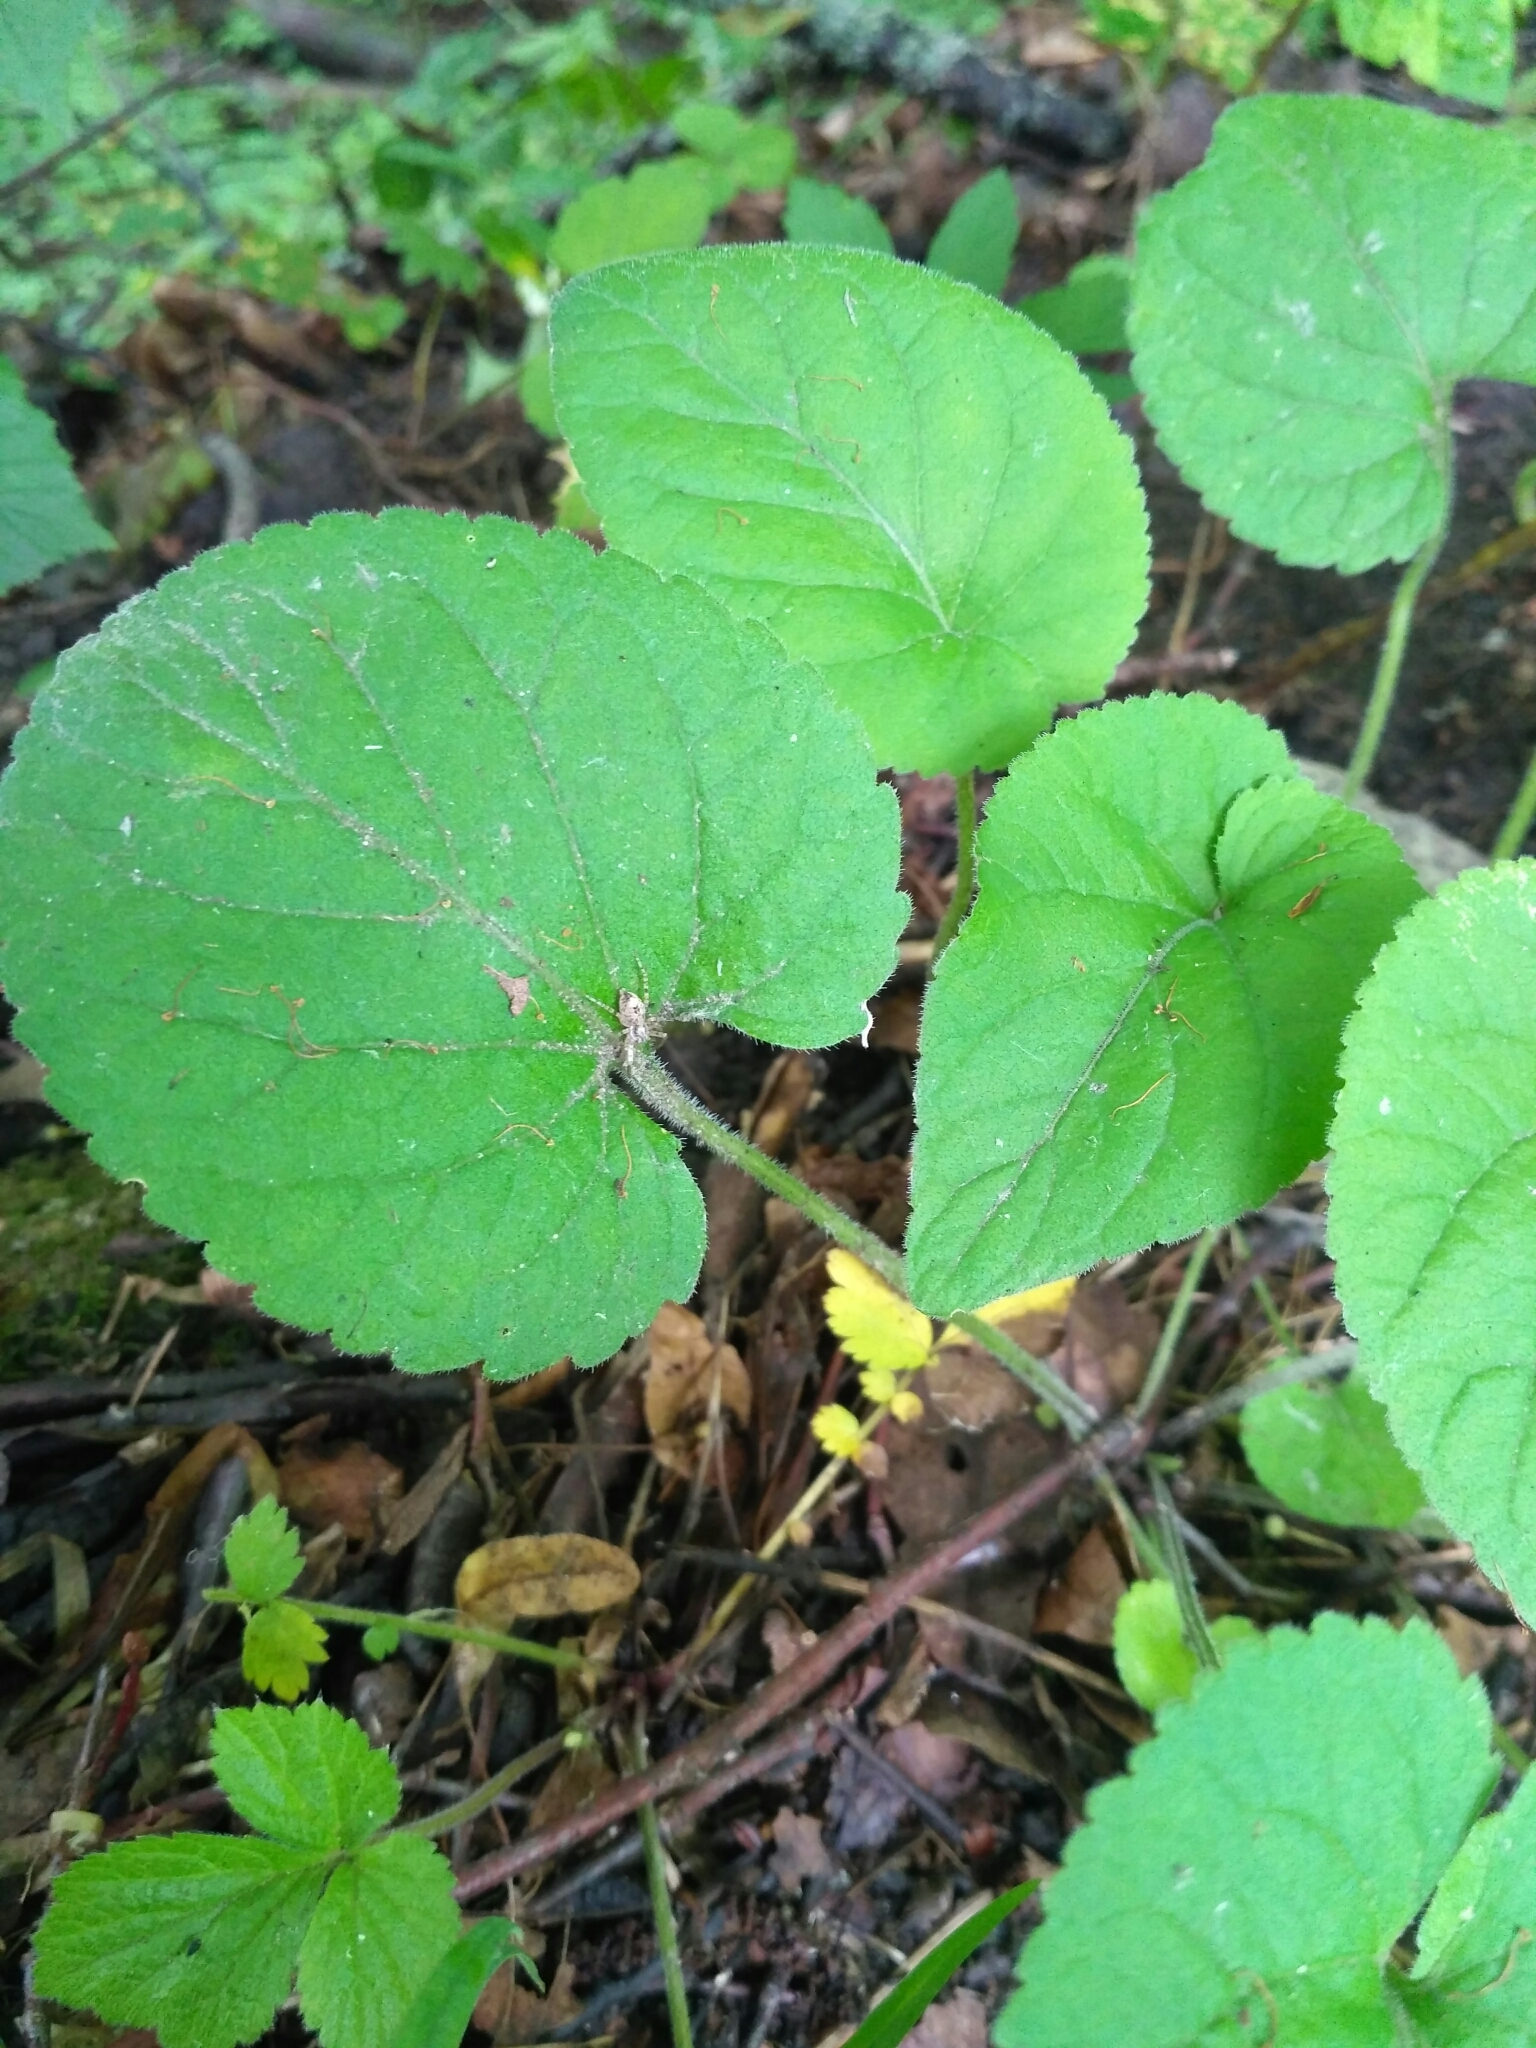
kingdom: Plantae
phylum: Tracheophyta
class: Magnoliopsida
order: Malpighiales
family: Violaceae
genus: Viola
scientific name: Viola odorata
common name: Sweet violet
